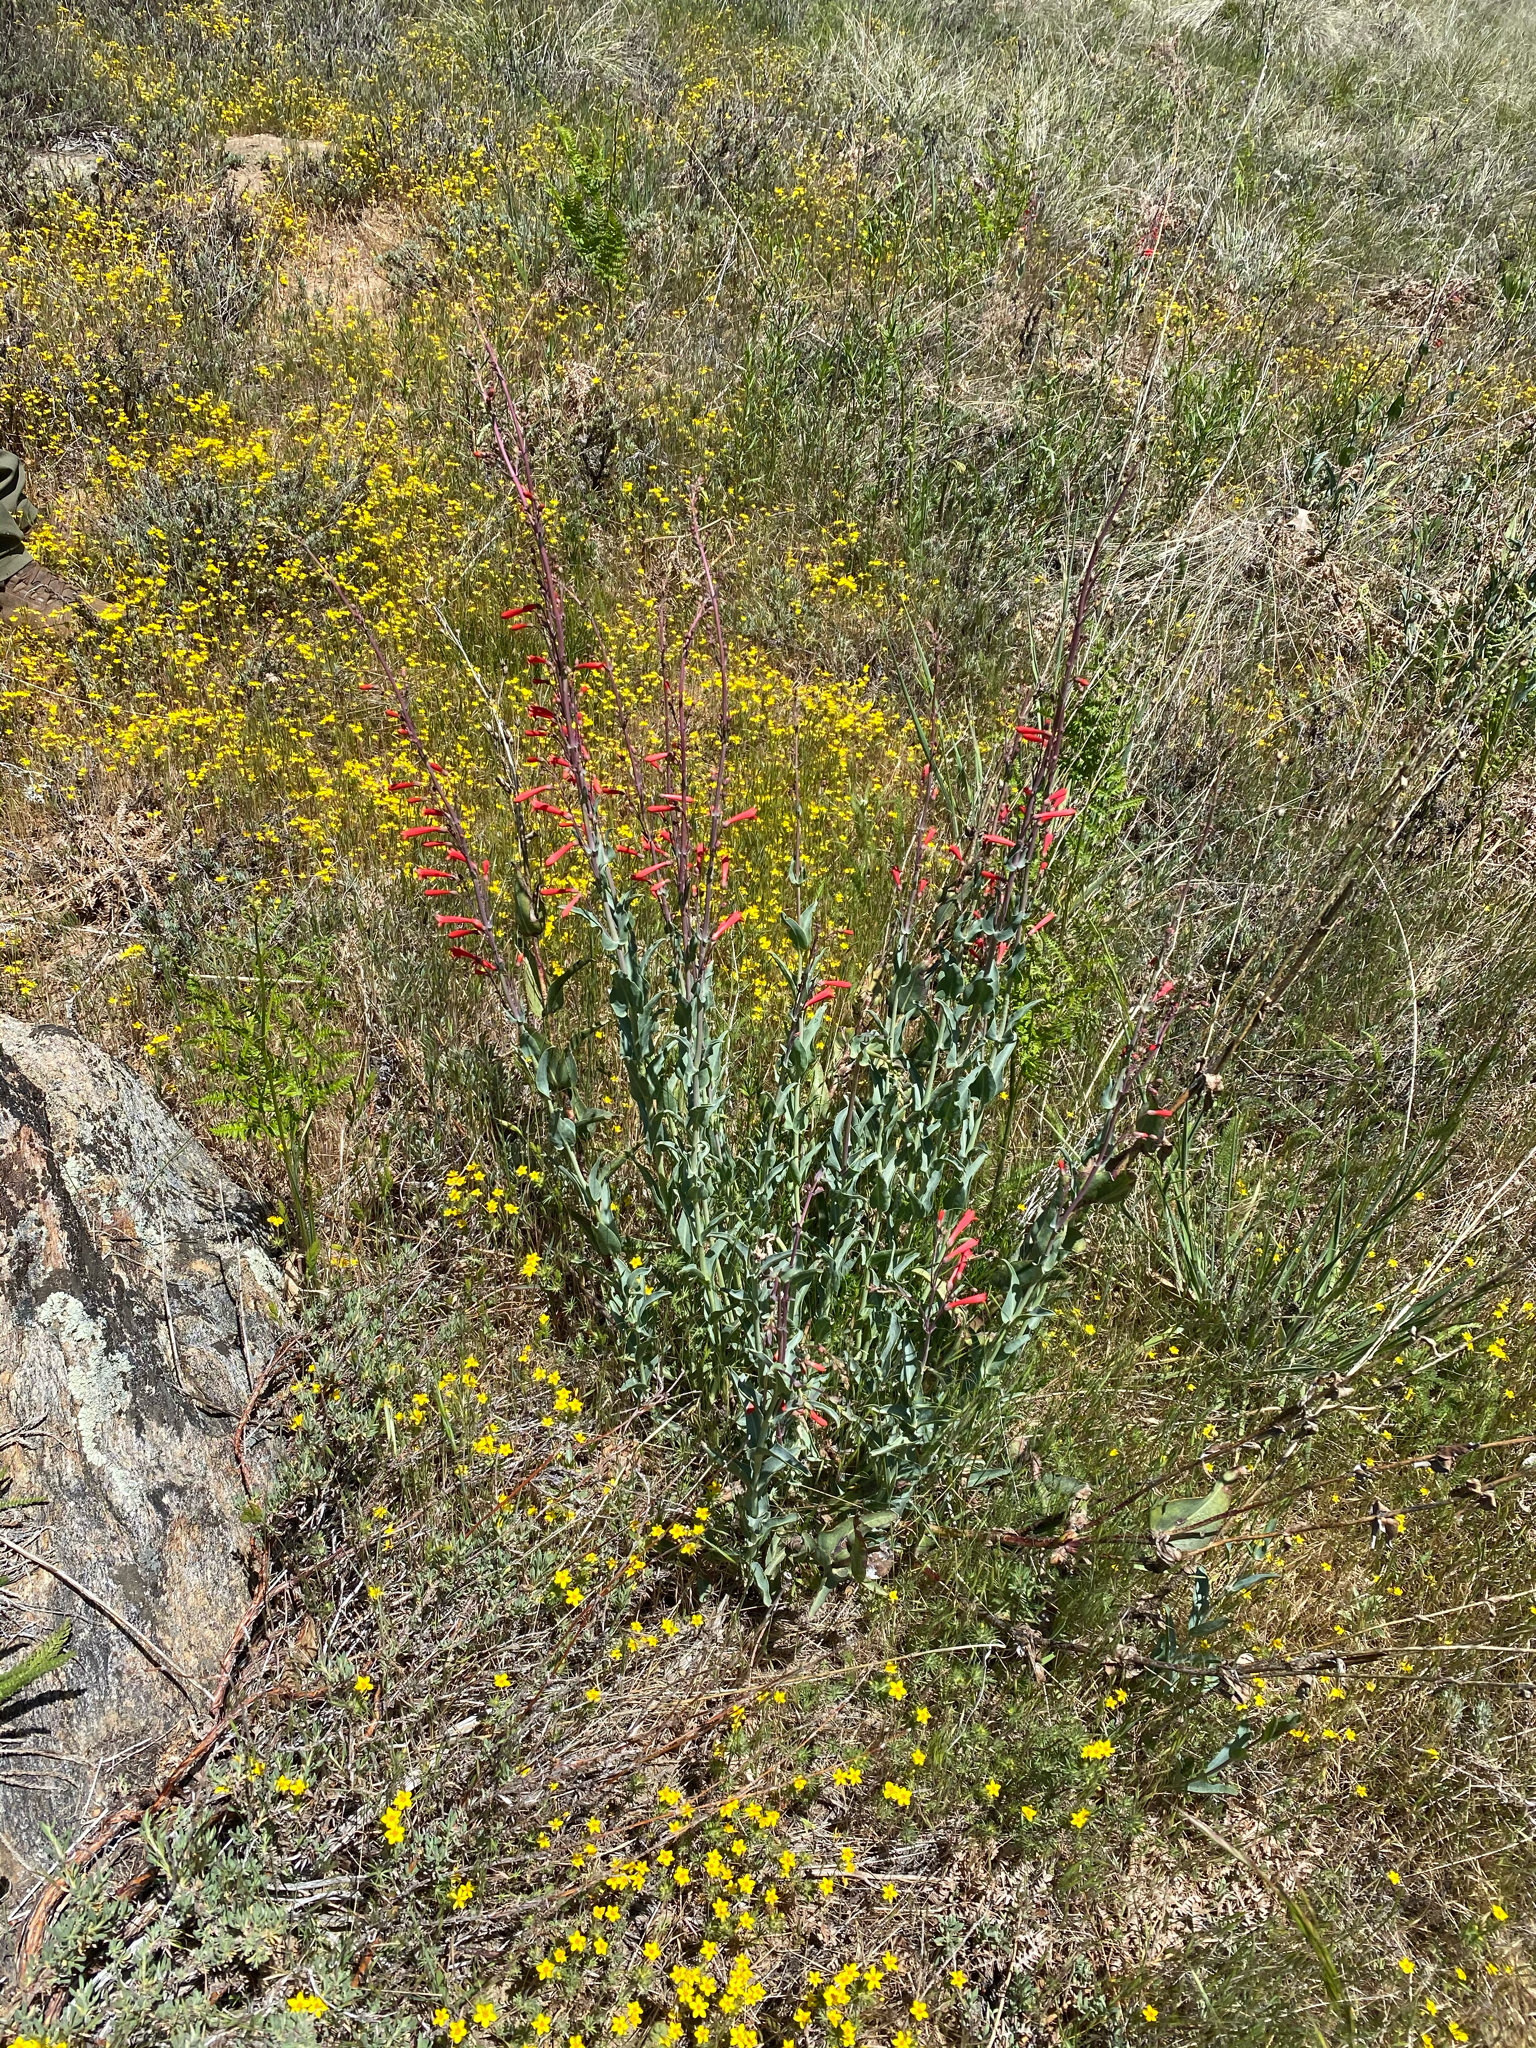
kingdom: Plantae
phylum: Tracheophyta
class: Magnoliopsida
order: Lamiales
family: Plantaginaceae
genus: Penstemon
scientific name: Penstemon centranthifolius
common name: Scarlet bugler
